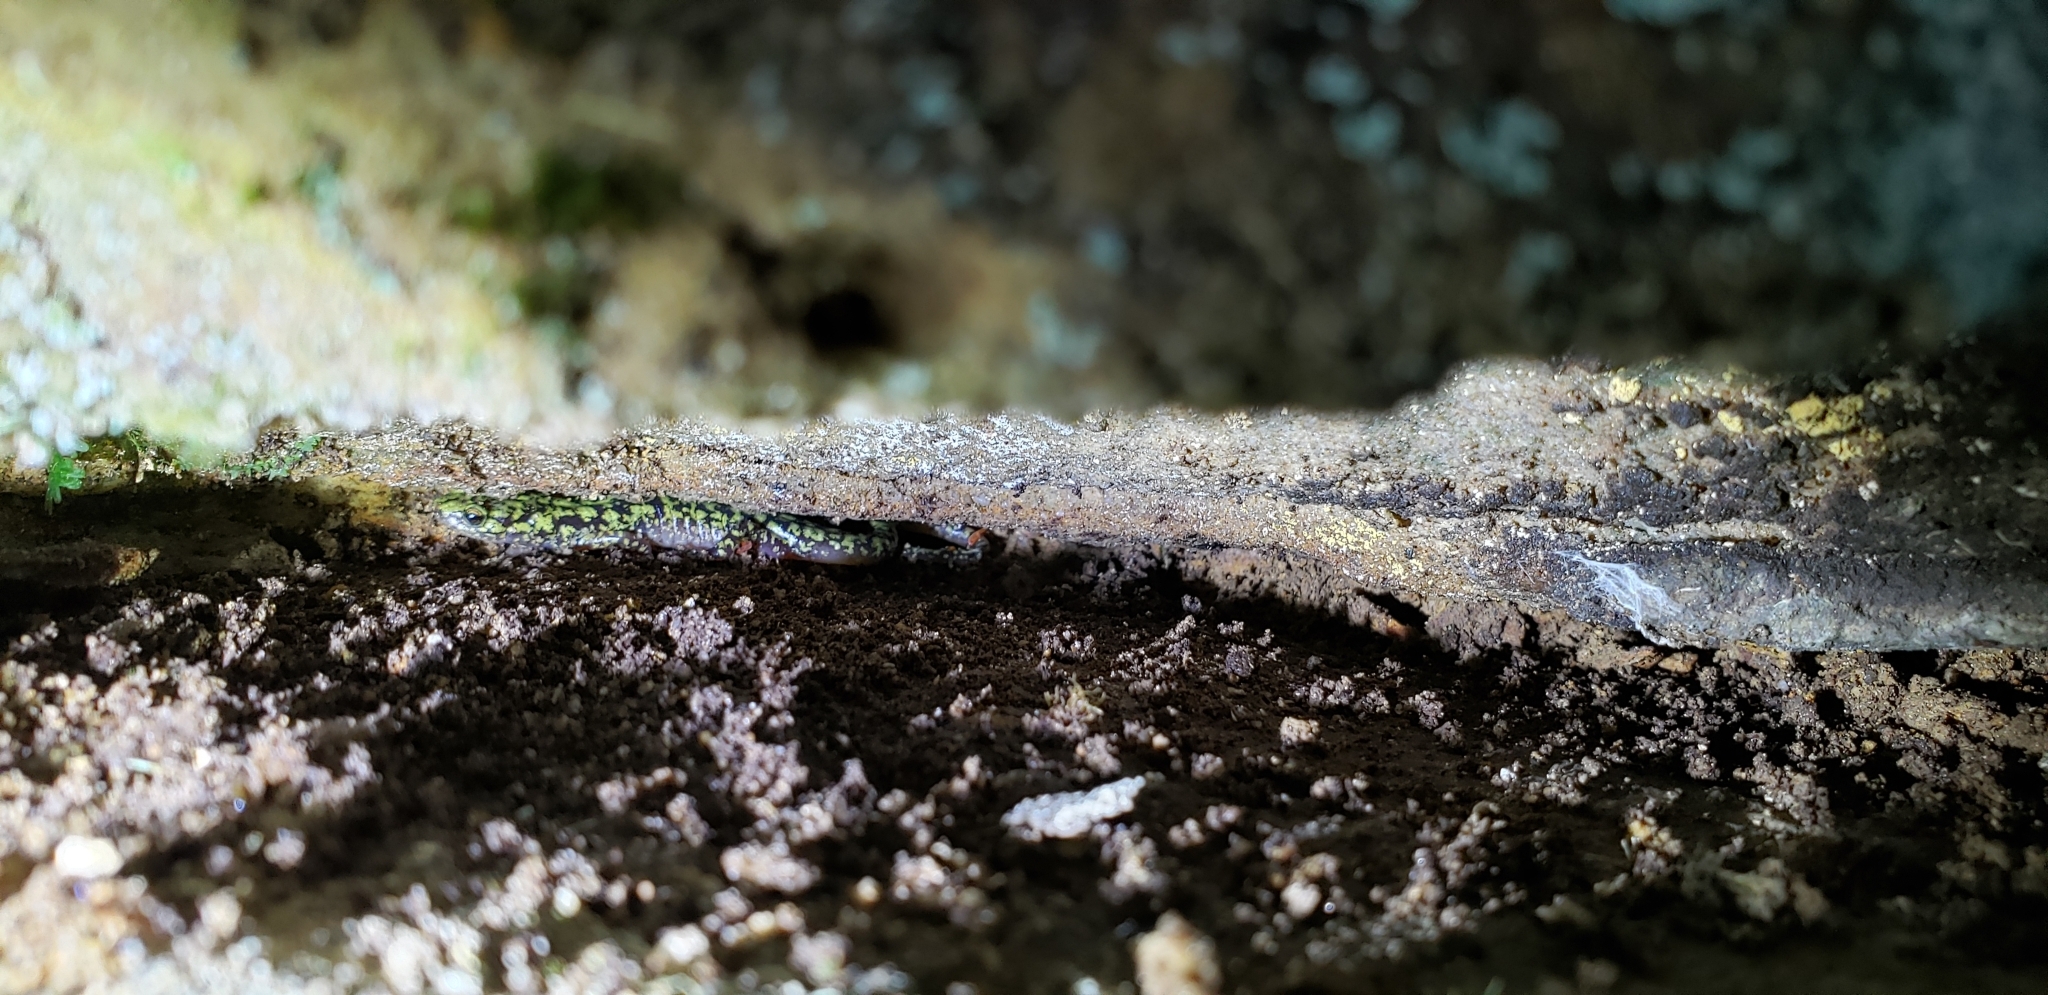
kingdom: Animalia
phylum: Chordata
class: Amphibia
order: Caudata
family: Plethodontidae
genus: Aneides
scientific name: Aneides aeneus
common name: Green salamander
